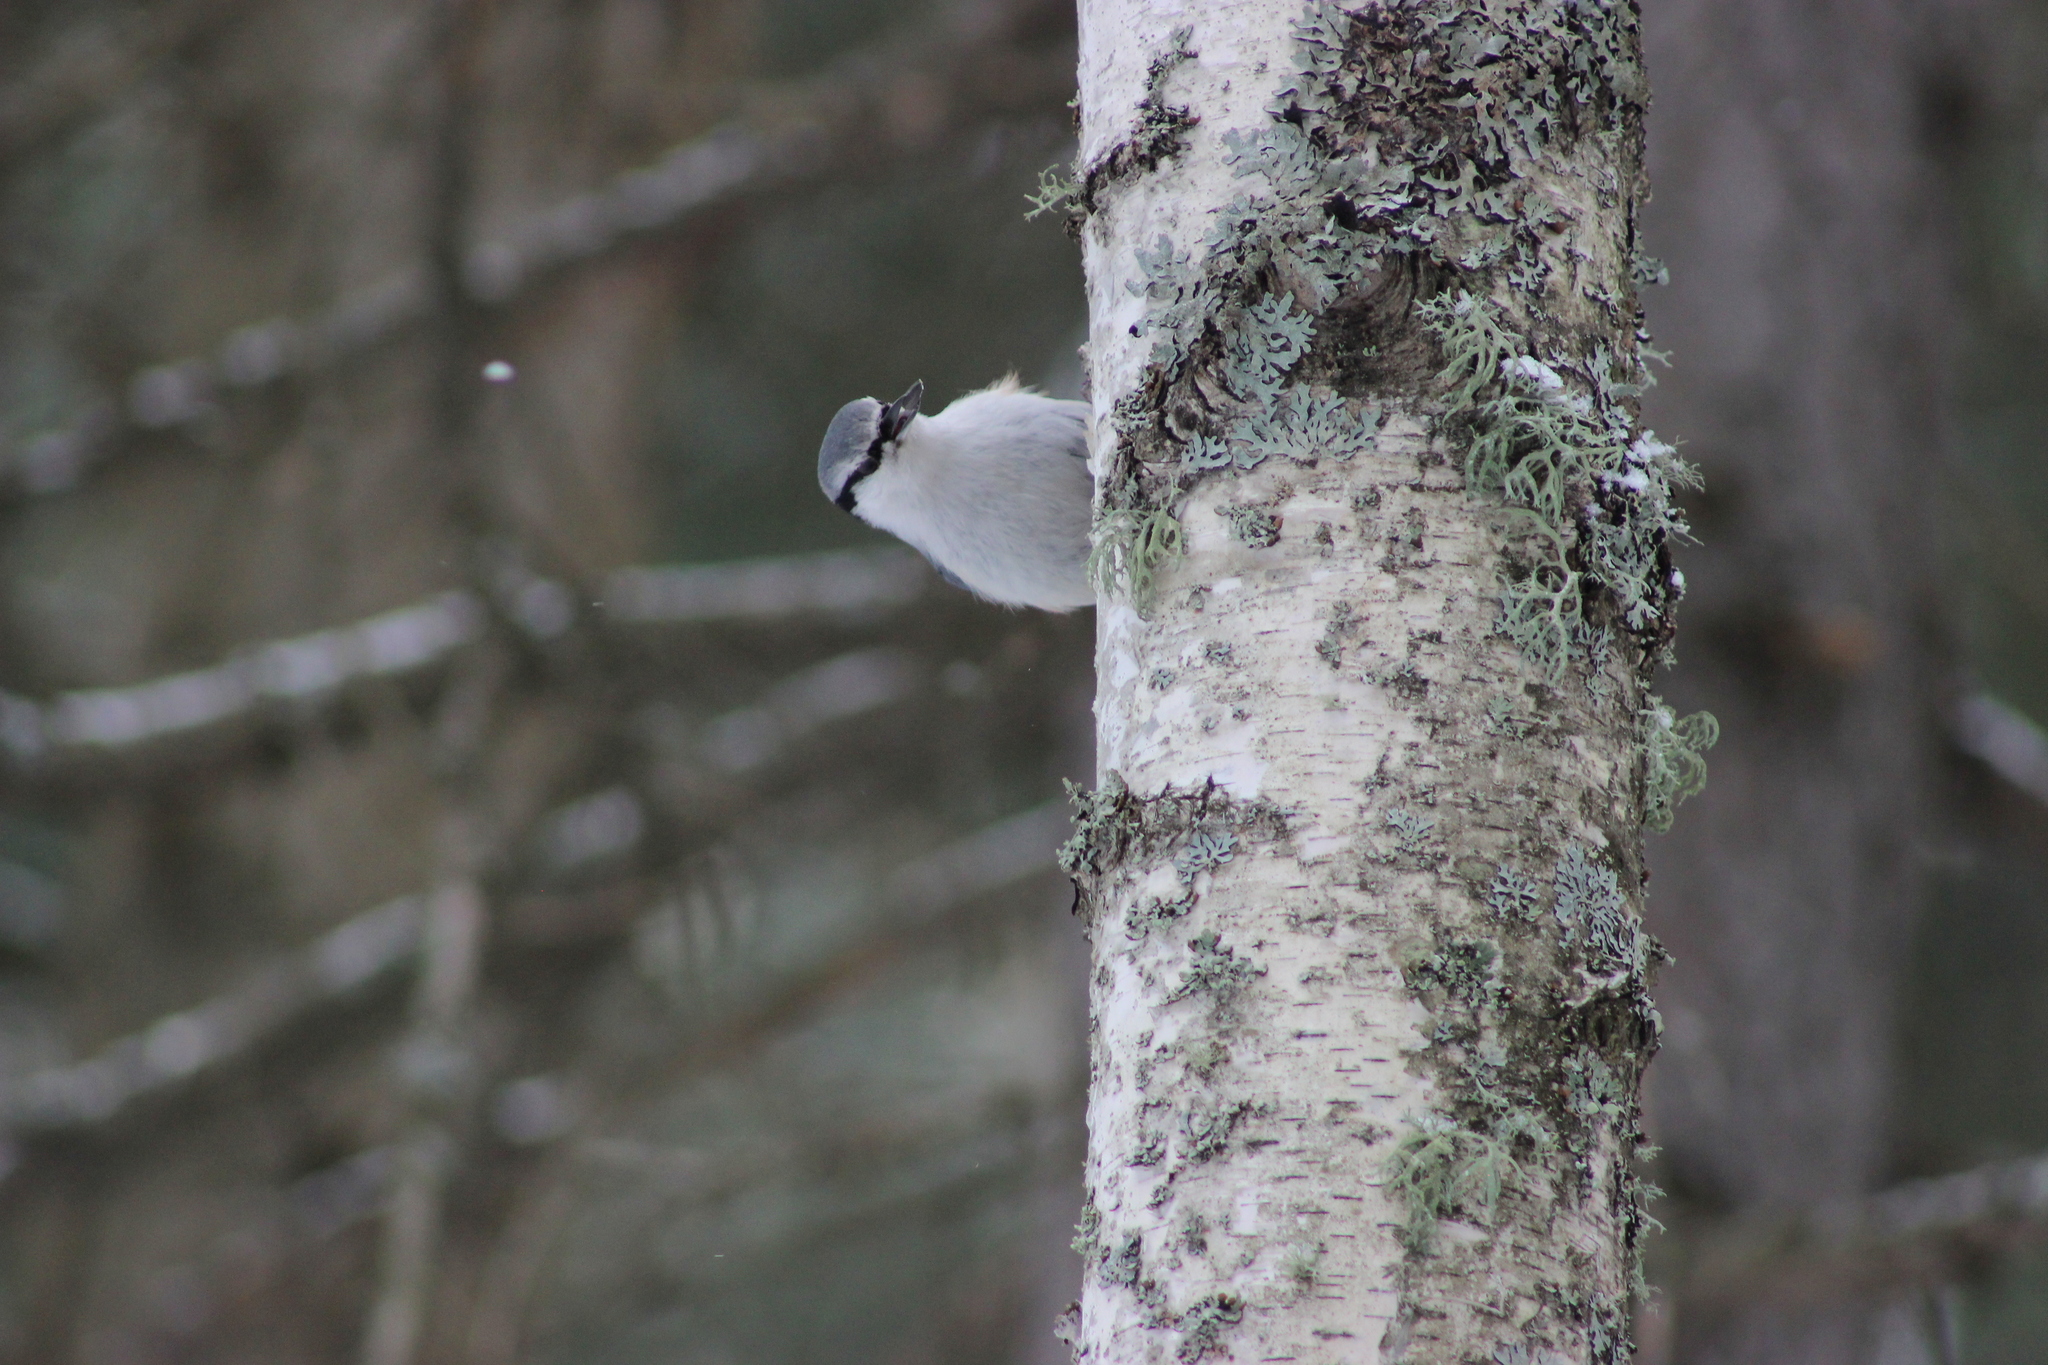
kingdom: Animalia
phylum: Chordata
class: Aves
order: Passeriformes
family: Sittidae
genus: Sitta
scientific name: Sitta europaea
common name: Eurasian nuthatch
